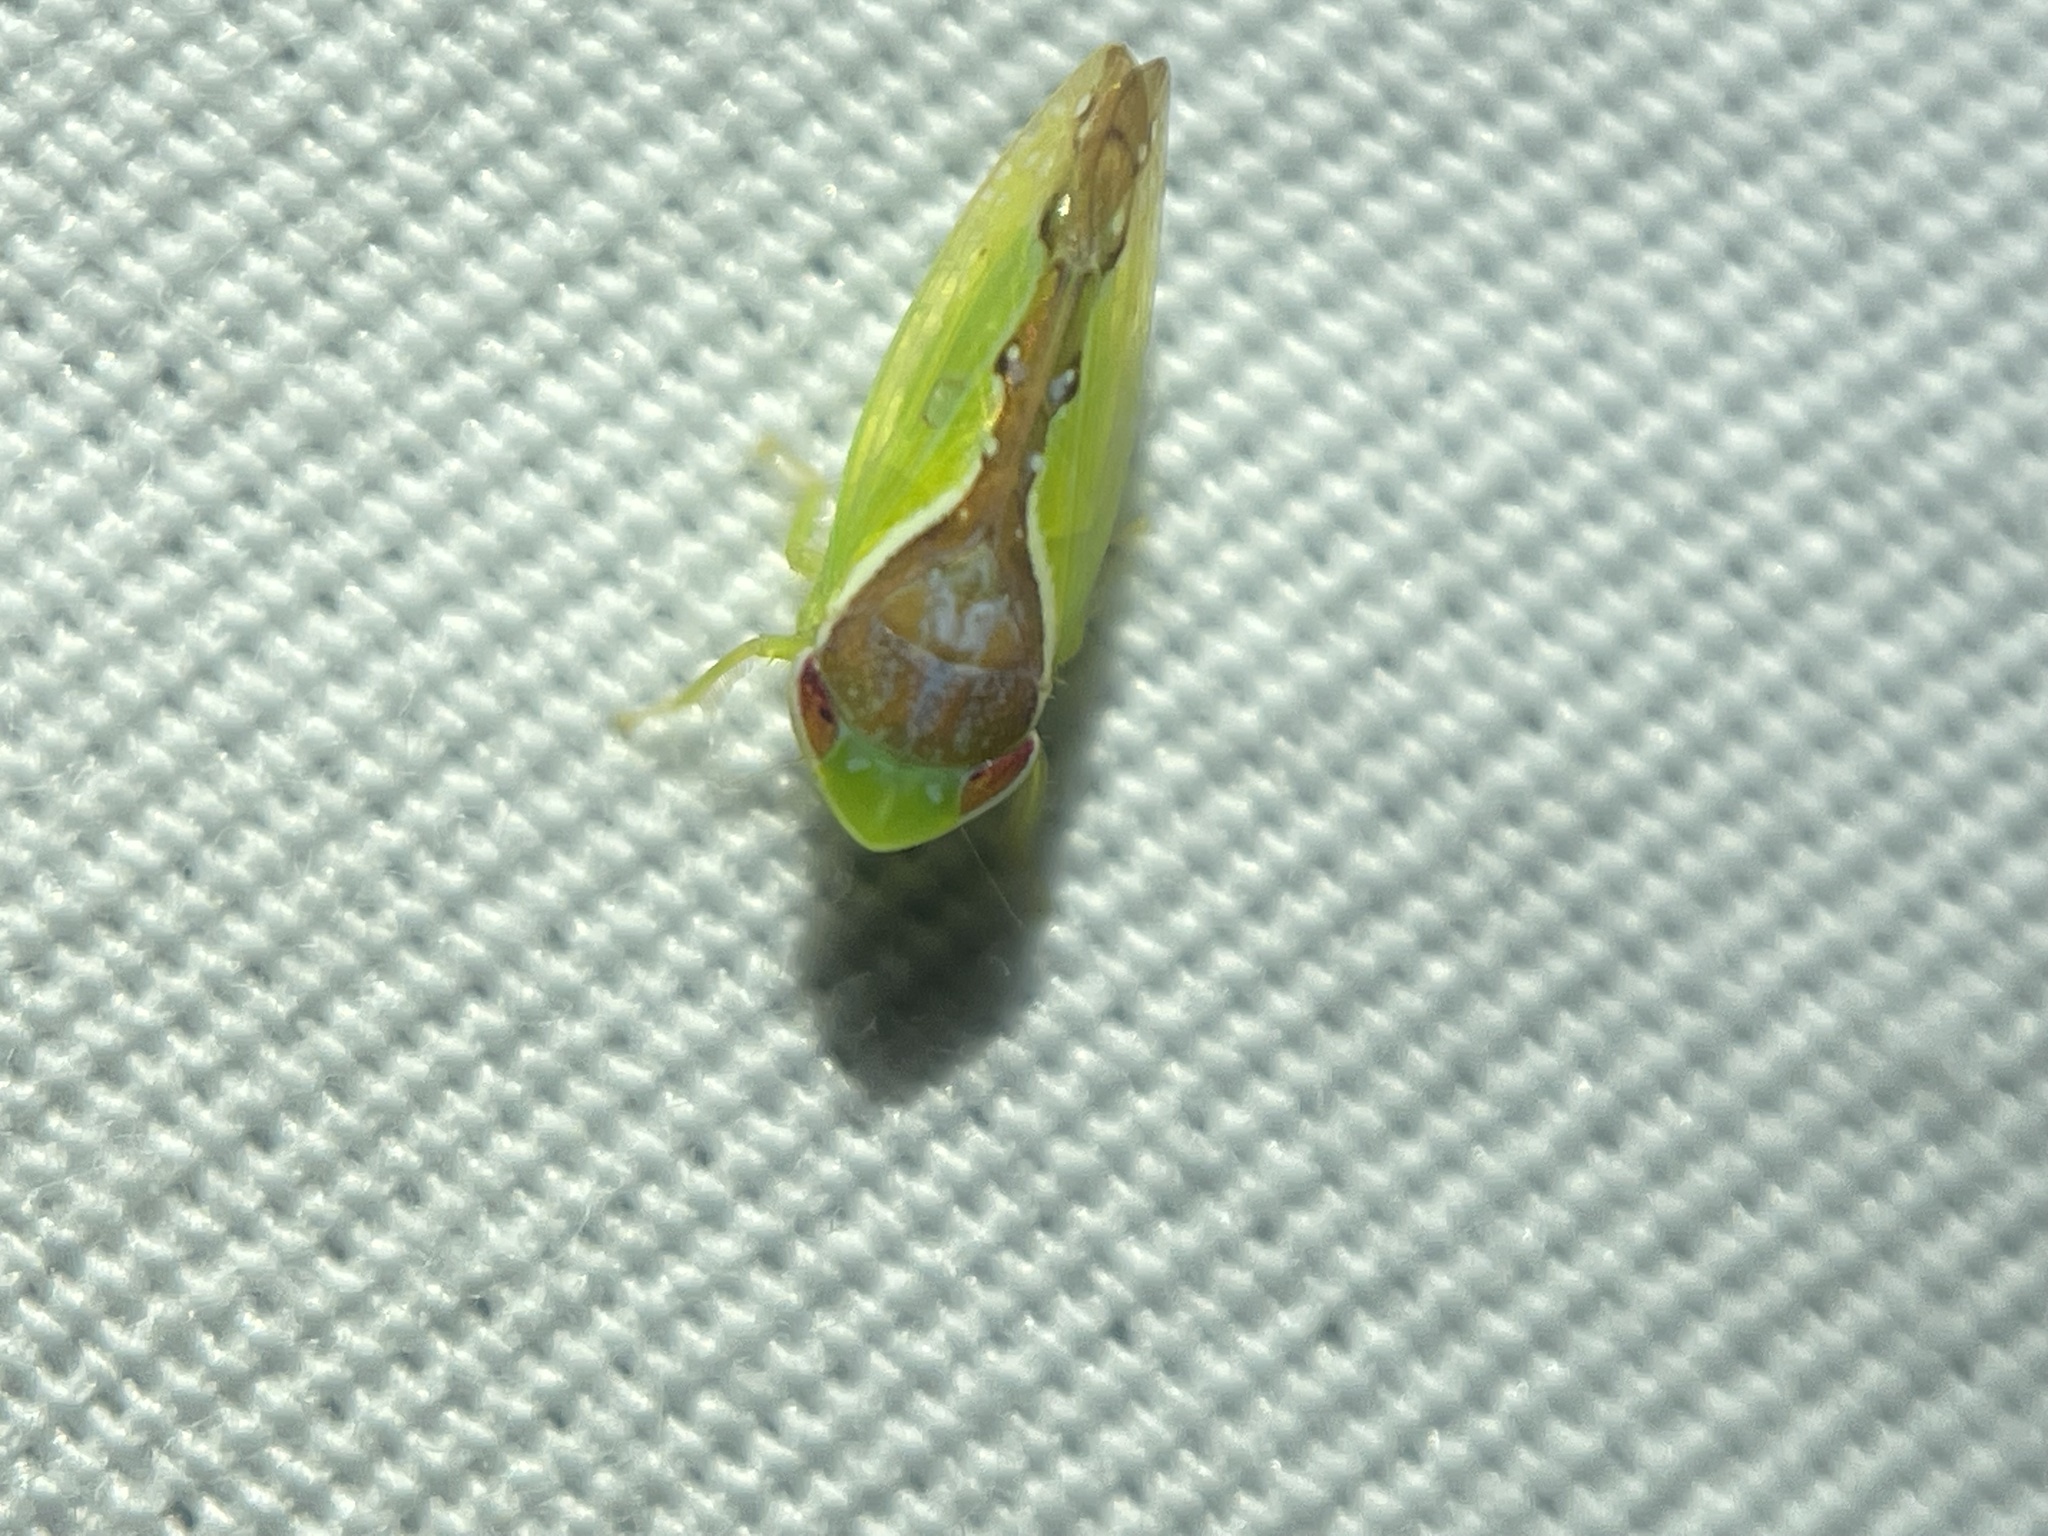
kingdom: Animalia
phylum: Arthropoda
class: Insecta
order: Hemiptera
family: Cicadellidae
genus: Omansobara ing
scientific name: Omansobara ing Omansobara palliolata
